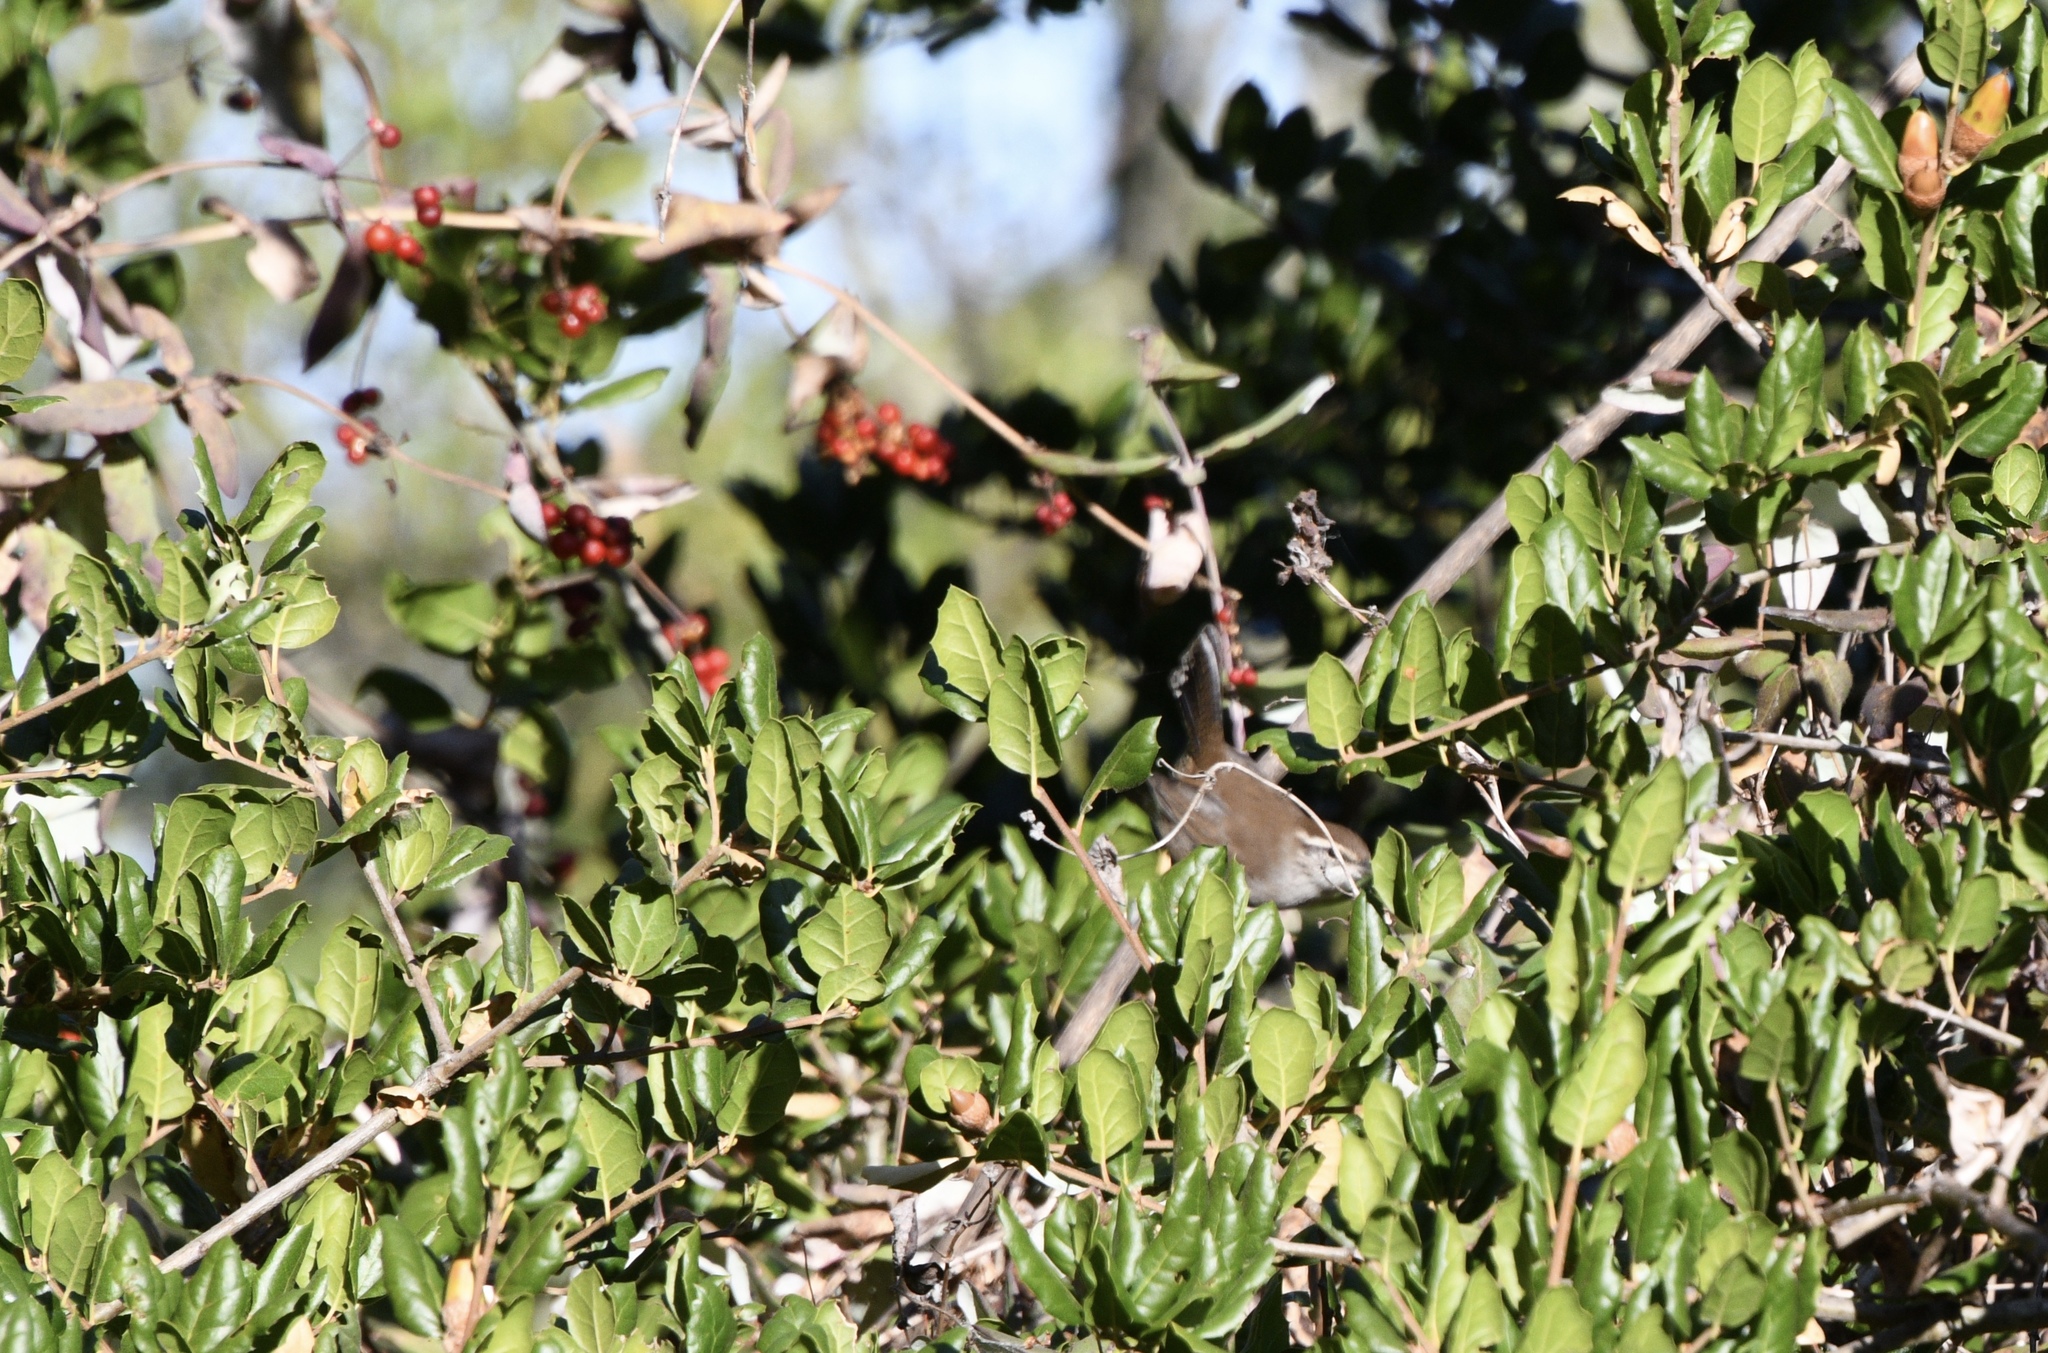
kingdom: Animalia
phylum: Chordata
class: Aves
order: Passeriformes
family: Troglodytidae
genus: Thryomanes
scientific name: Thryomanes bewickii
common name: Bewick's wren
